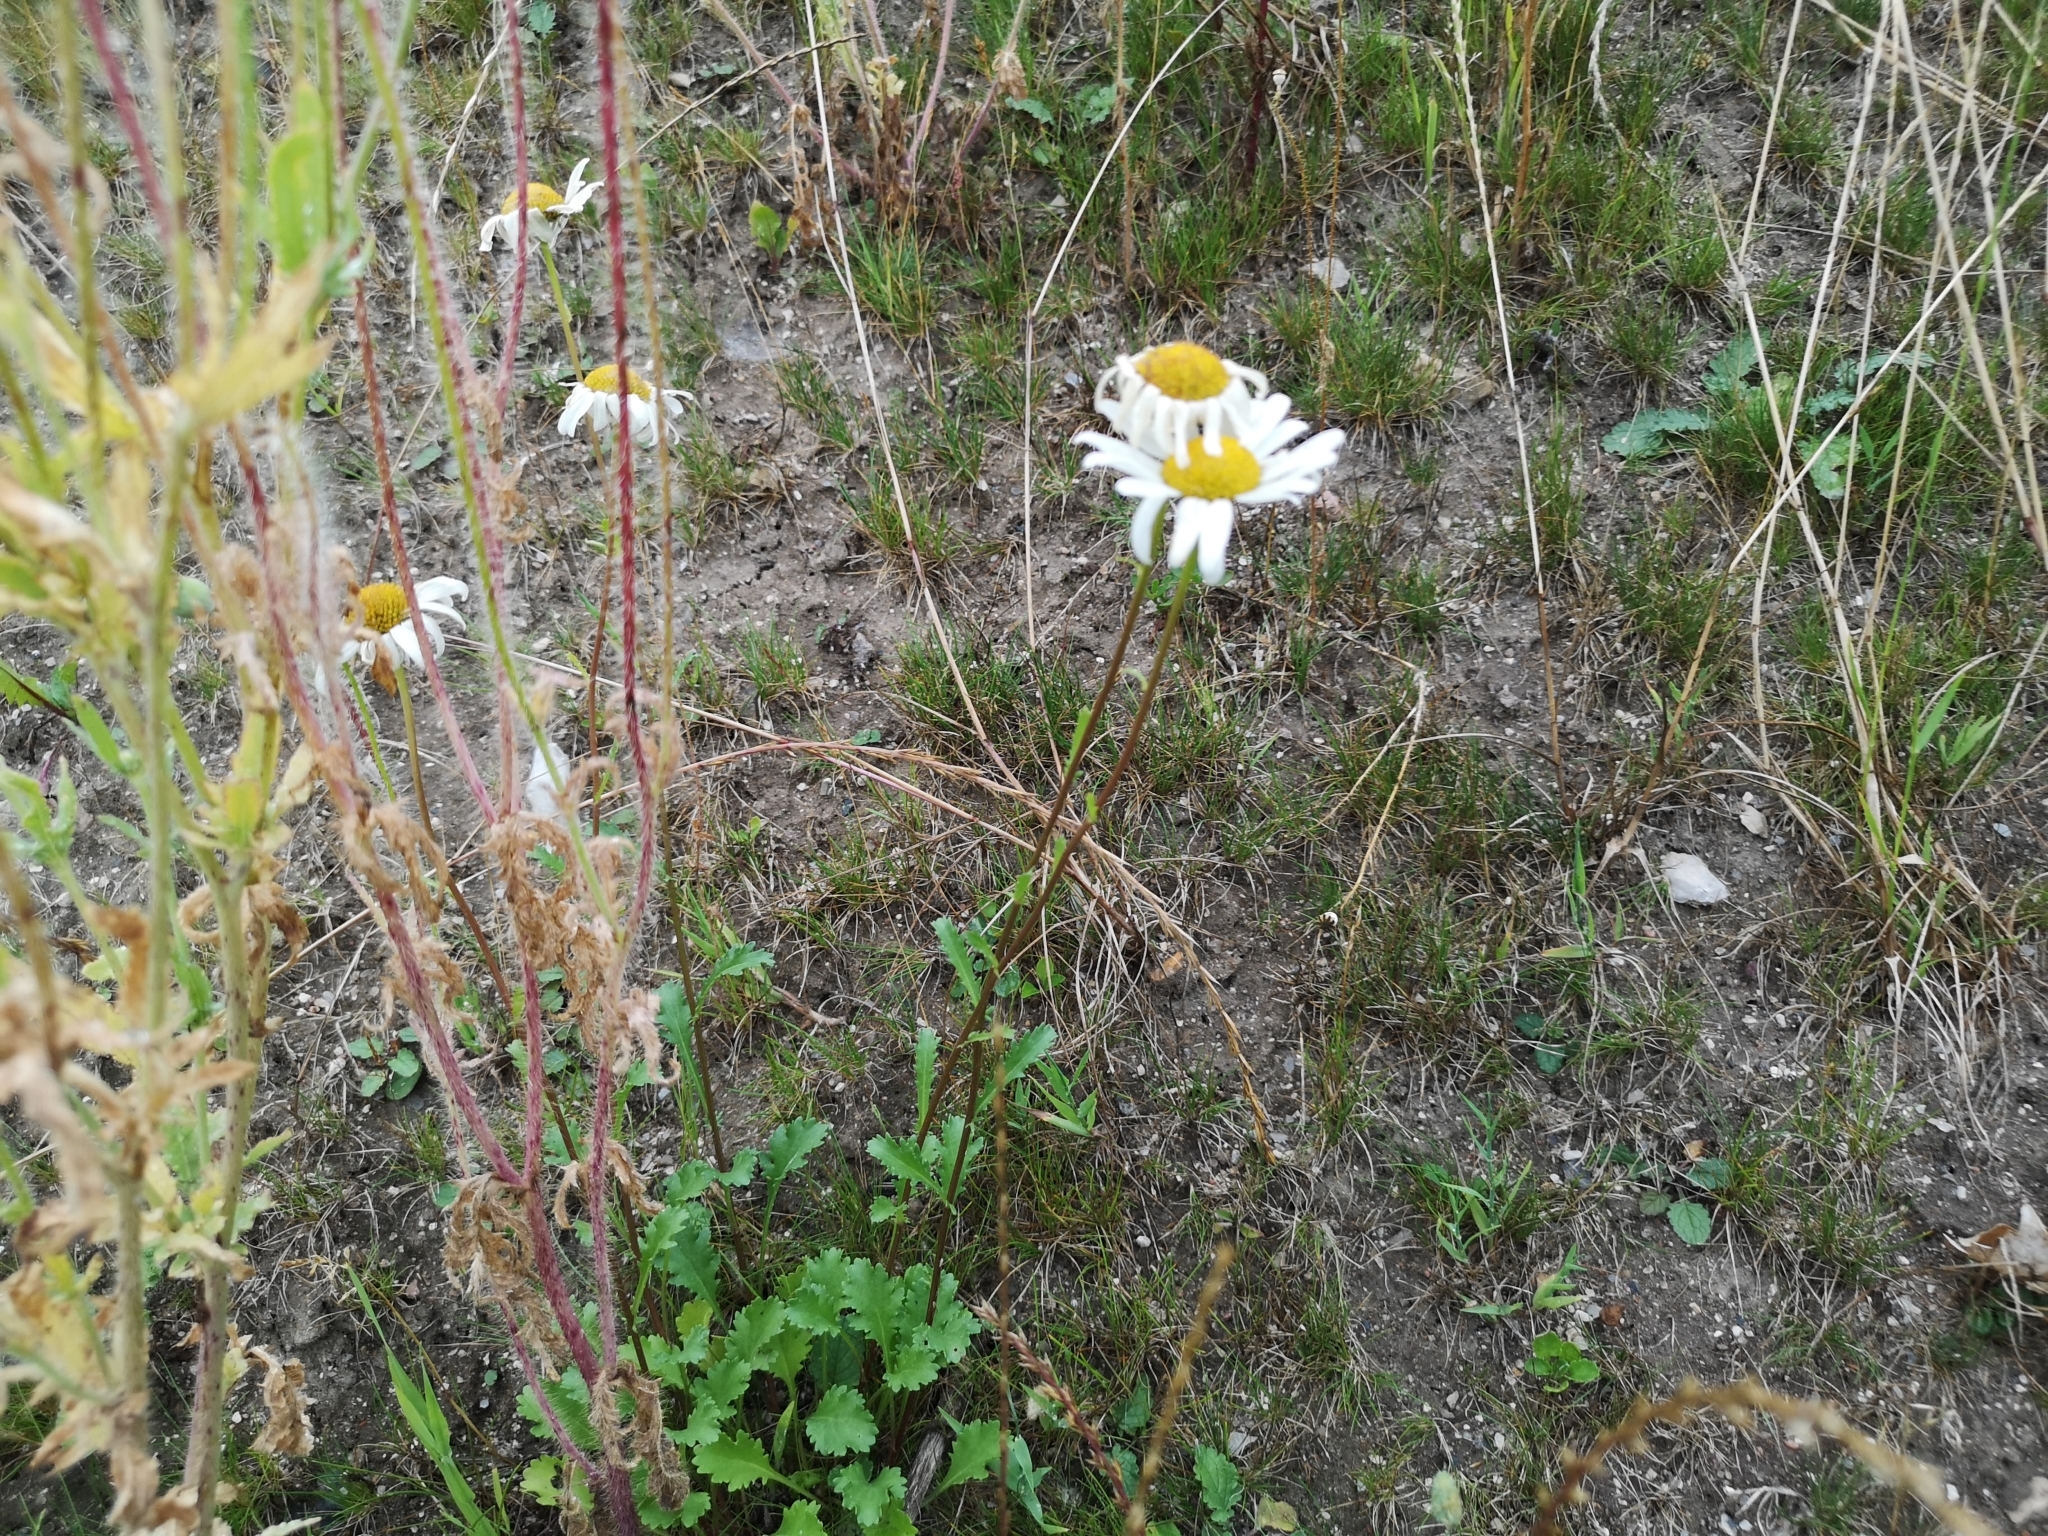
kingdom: Plantae
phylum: Tracheophyta
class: Magnoliopsida
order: Asterales
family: Asteraceae
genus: Leucanthemum
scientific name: Leucanthemum vulgare
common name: Oxeye daisy
